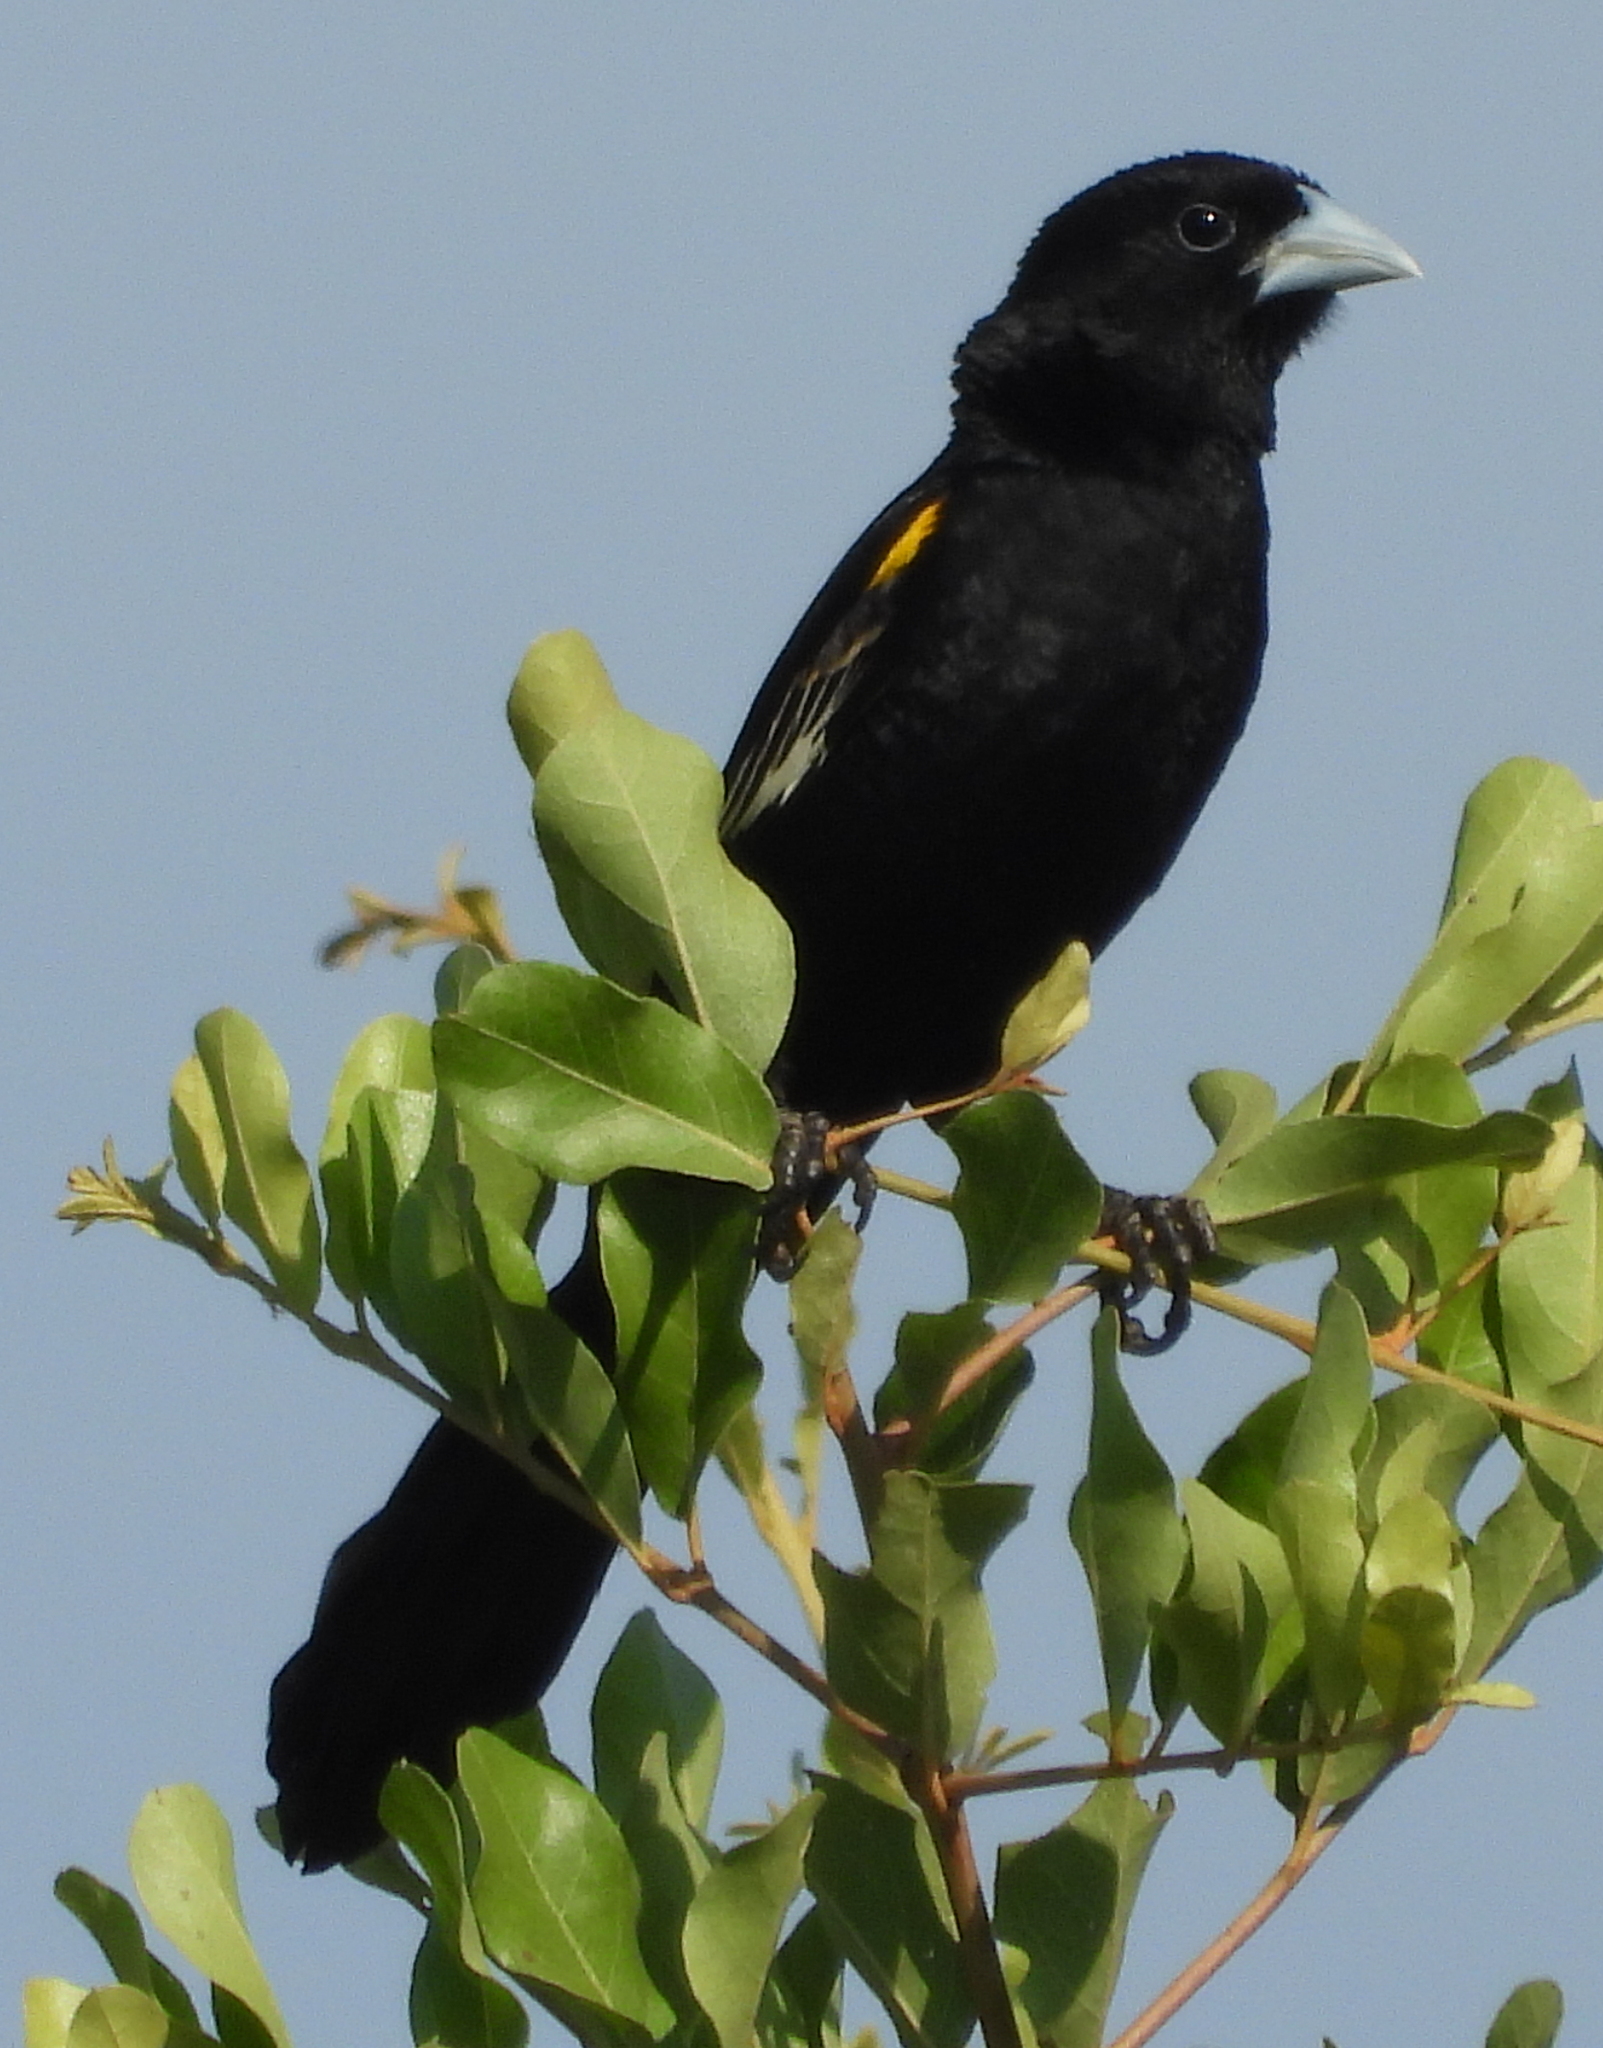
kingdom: Animalia
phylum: Chordata
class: Aves
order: Passeriformes
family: Ploceidae
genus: Euplectes
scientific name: Euplectes albonotatus
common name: White-winged widowbird
